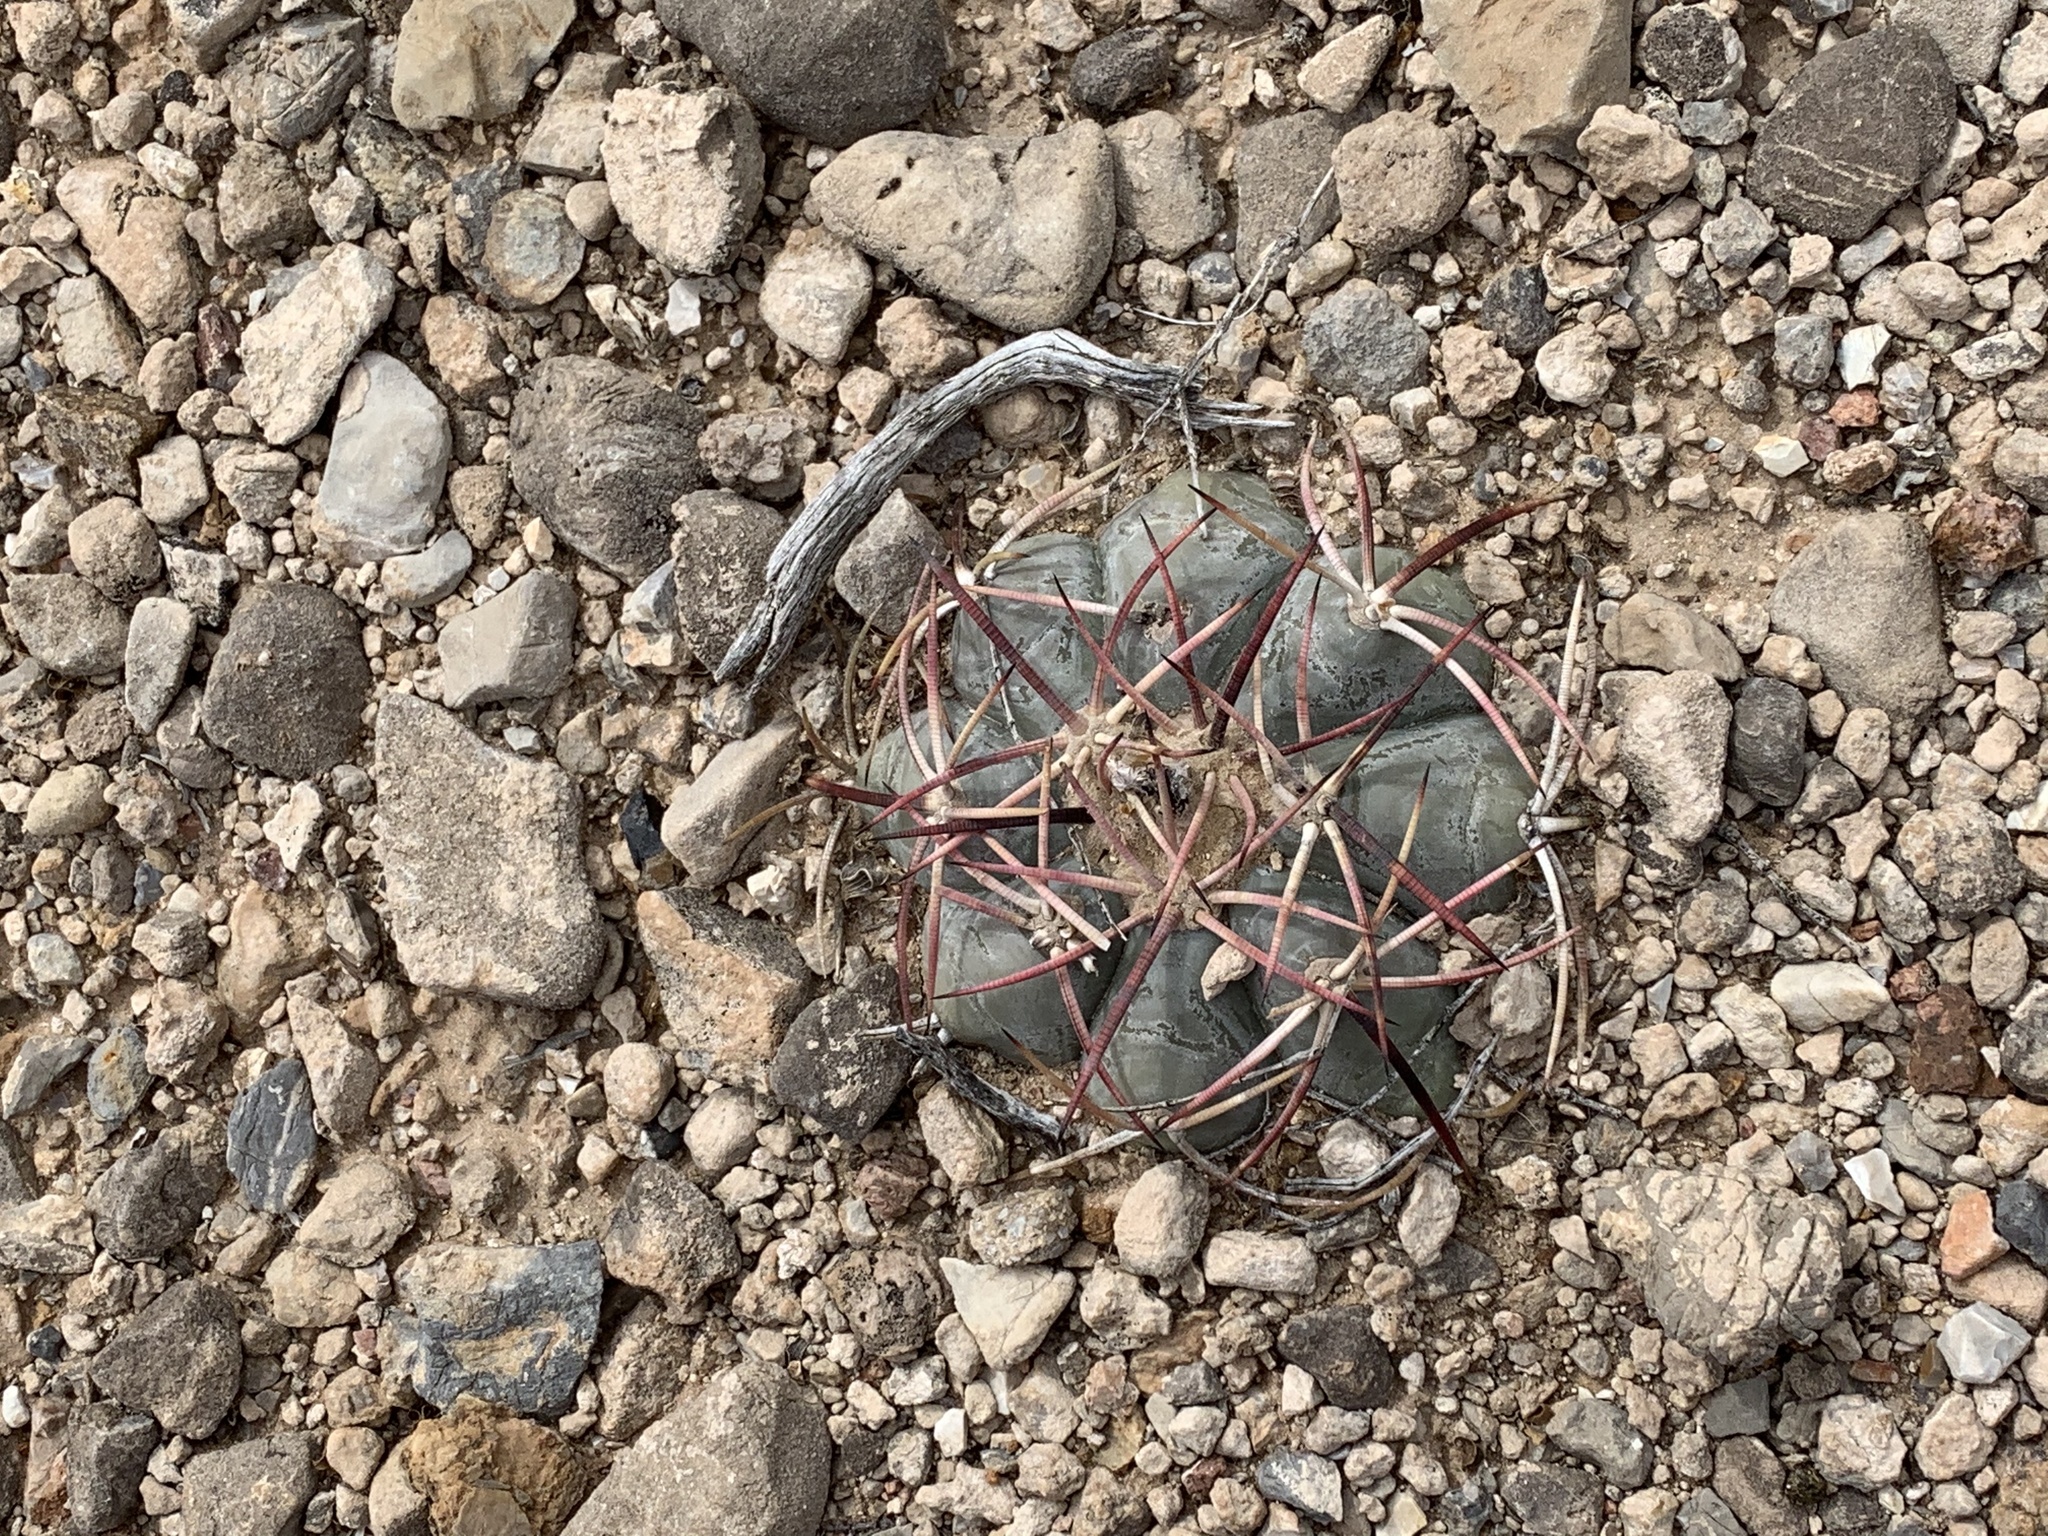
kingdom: Plantae
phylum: Tracheophyta
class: Magnoliopsida
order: Caryophyllales
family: Cactaceae
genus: Echinocactus
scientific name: Echinocactus horizonthalonius
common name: Devilshead
